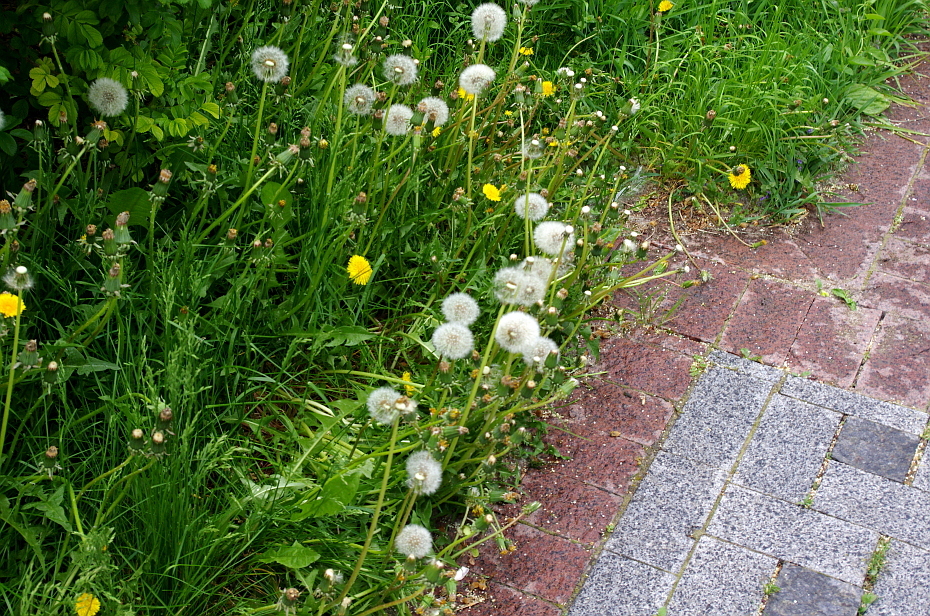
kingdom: Plantae
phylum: Tracheophyta
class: Magnoliopsida
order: Asterales
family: Asteraceae
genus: Taraxacum
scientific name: Taraxacum officinale
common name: Common dandelion
